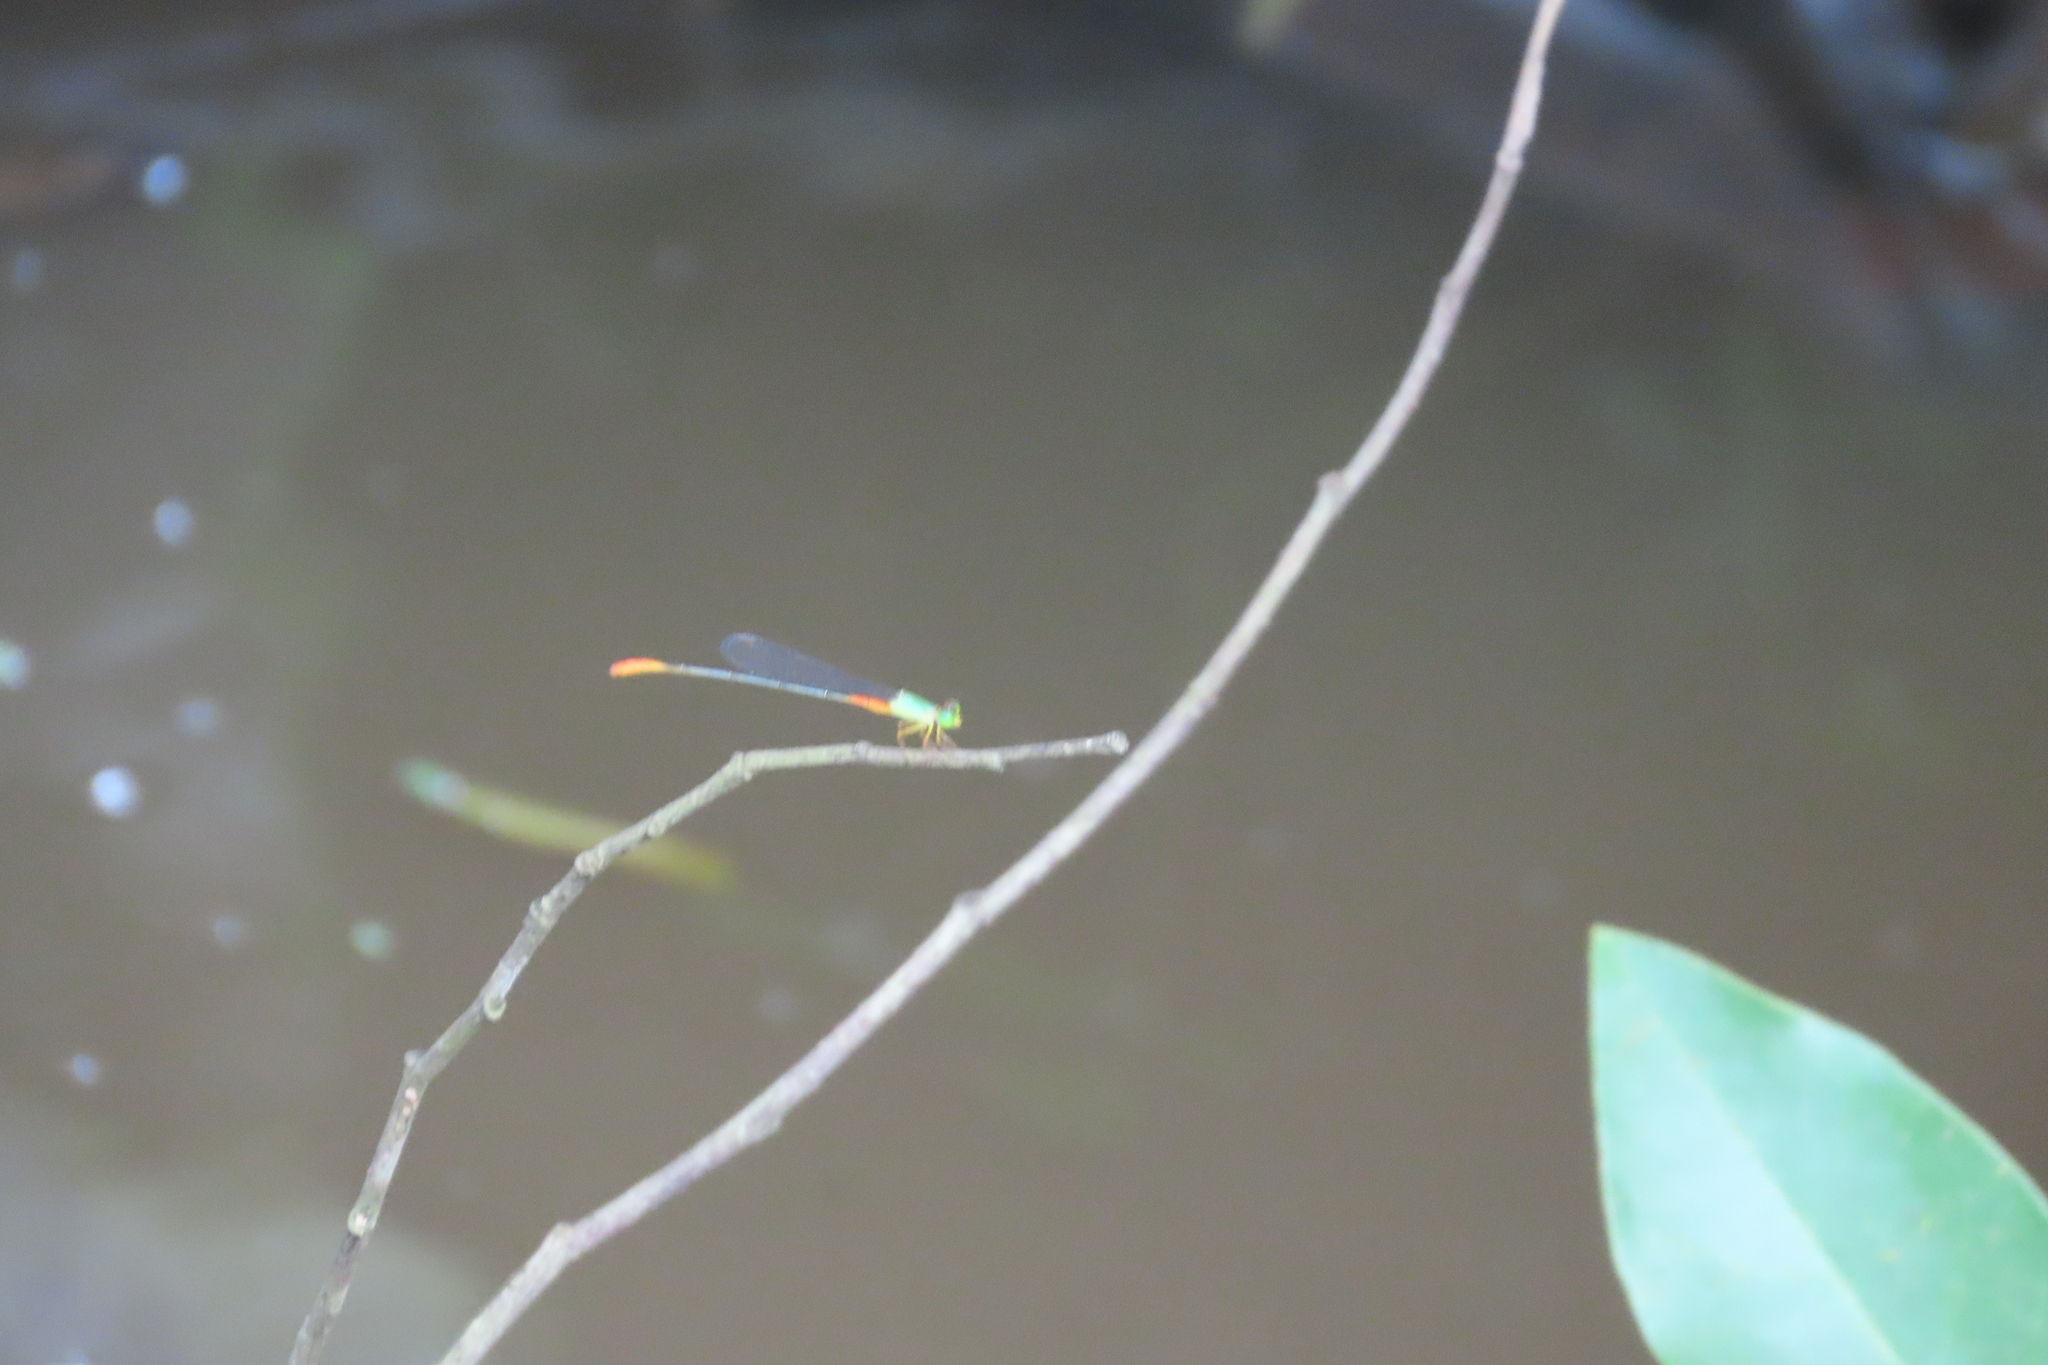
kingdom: Animalia
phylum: Arthropoda
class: Insecta
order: Odonata
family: Coenagrionidae
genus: Ceriagrion
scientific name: Ceriagrion cerinorubellum
